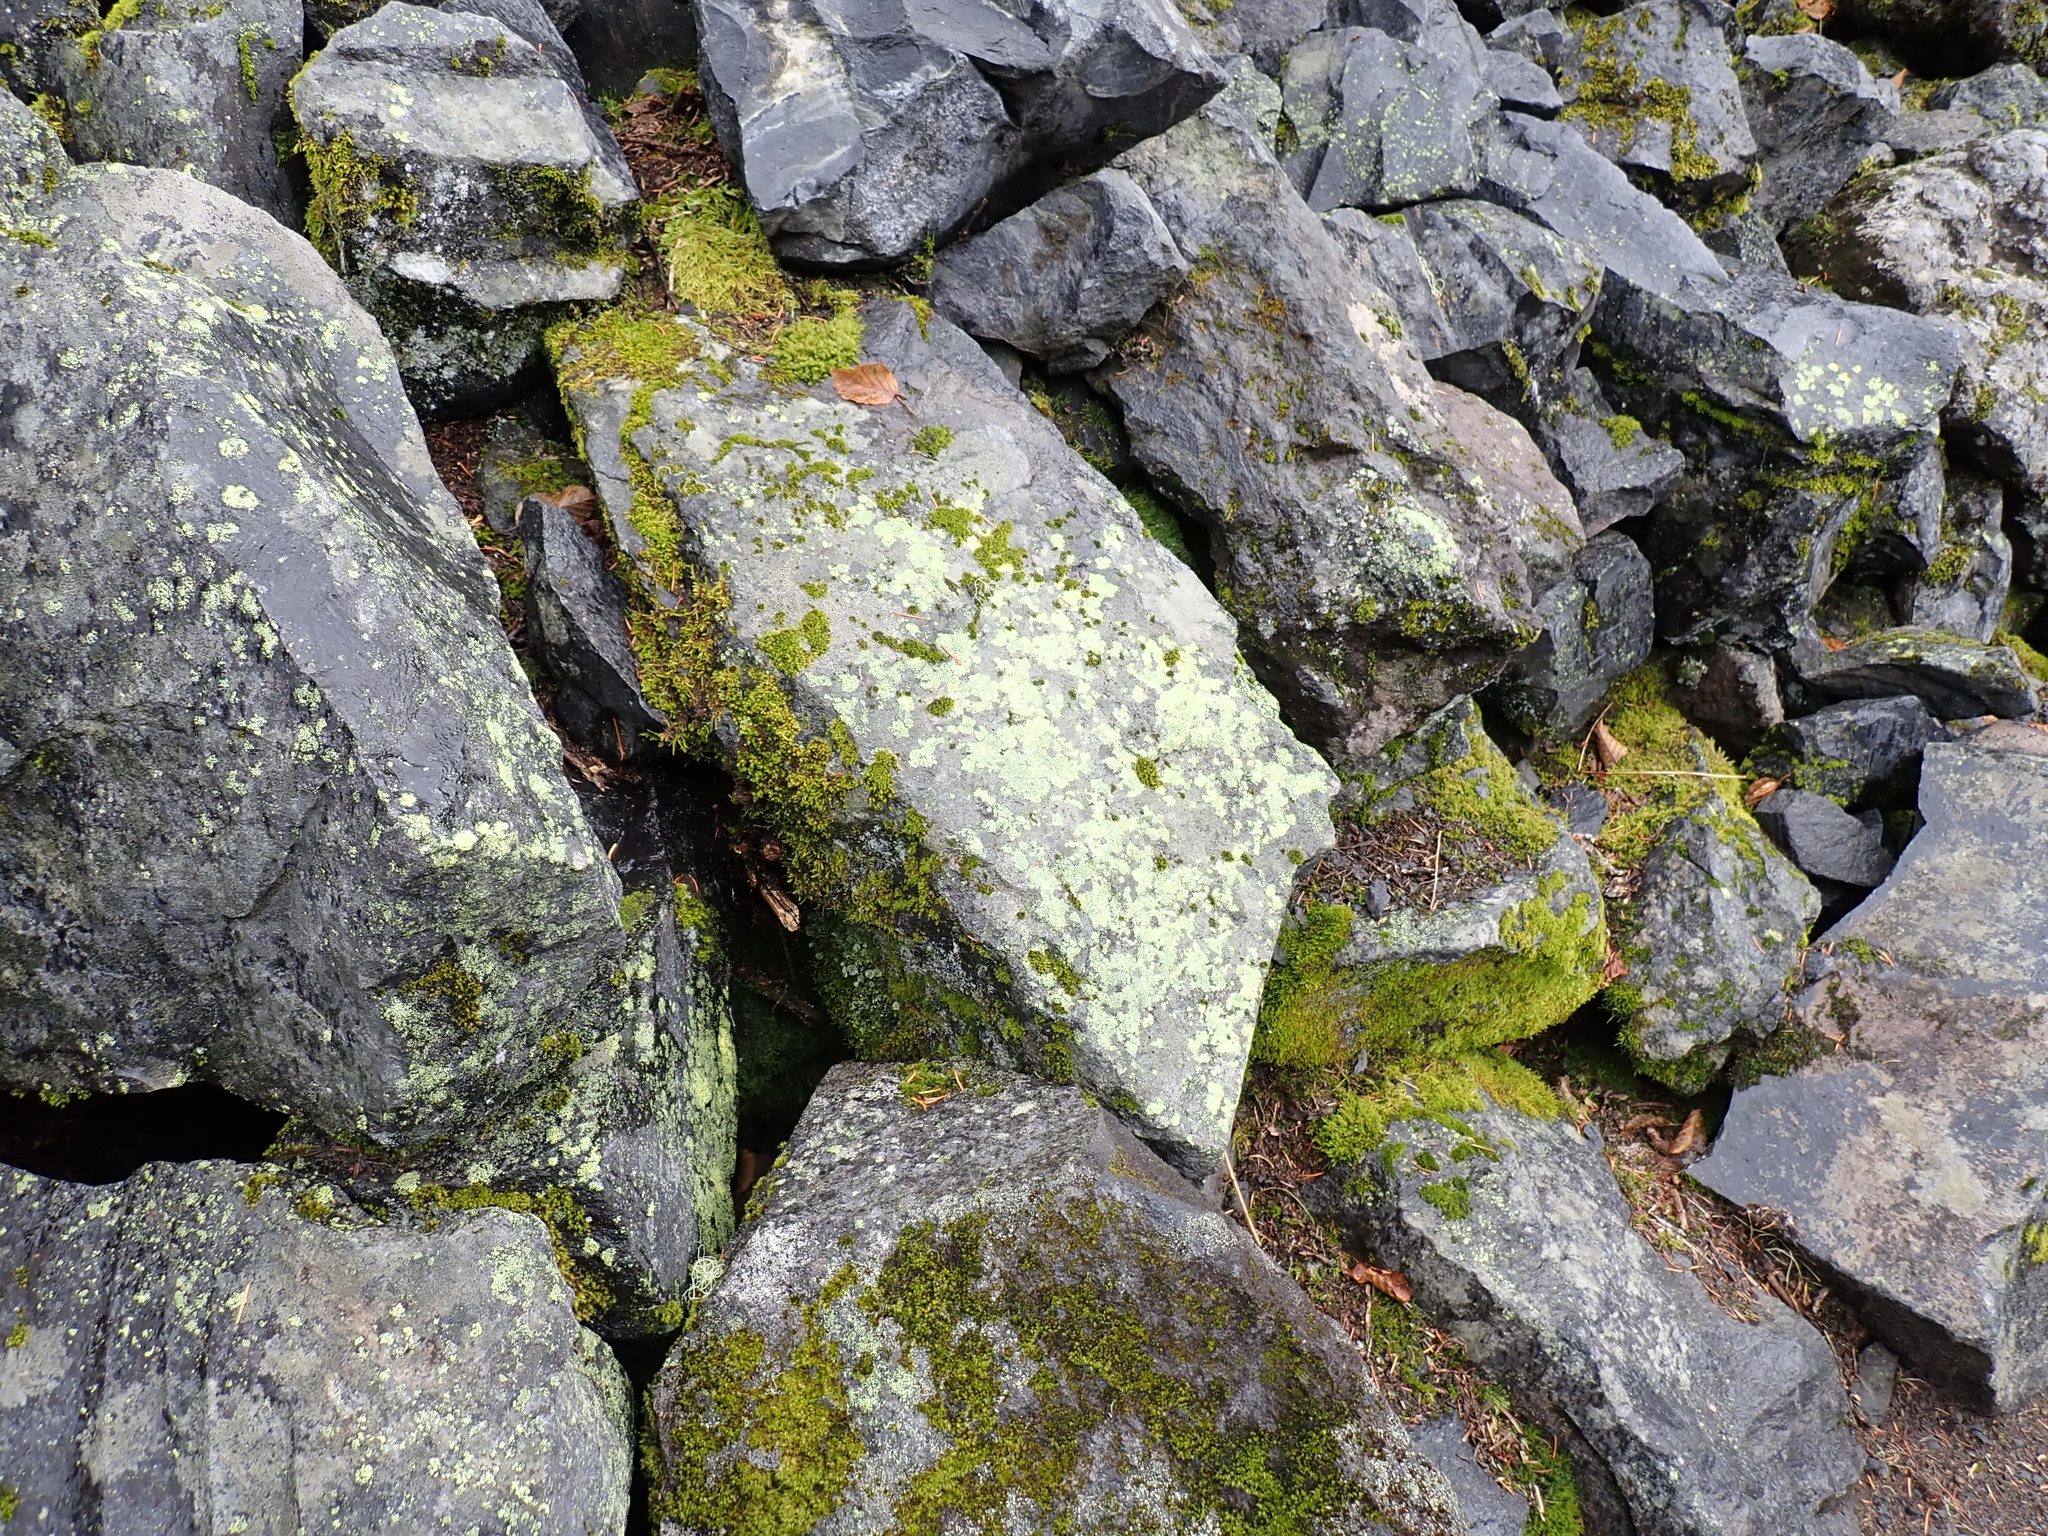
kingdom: Fungi
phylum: Ascomycota
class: Lecanoromycetes
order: Rhizocarpales
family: Rhizocarpaceae
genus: Rhizocarpon
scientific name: Rhizocarpon geographicum
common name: Yellow map lichen
